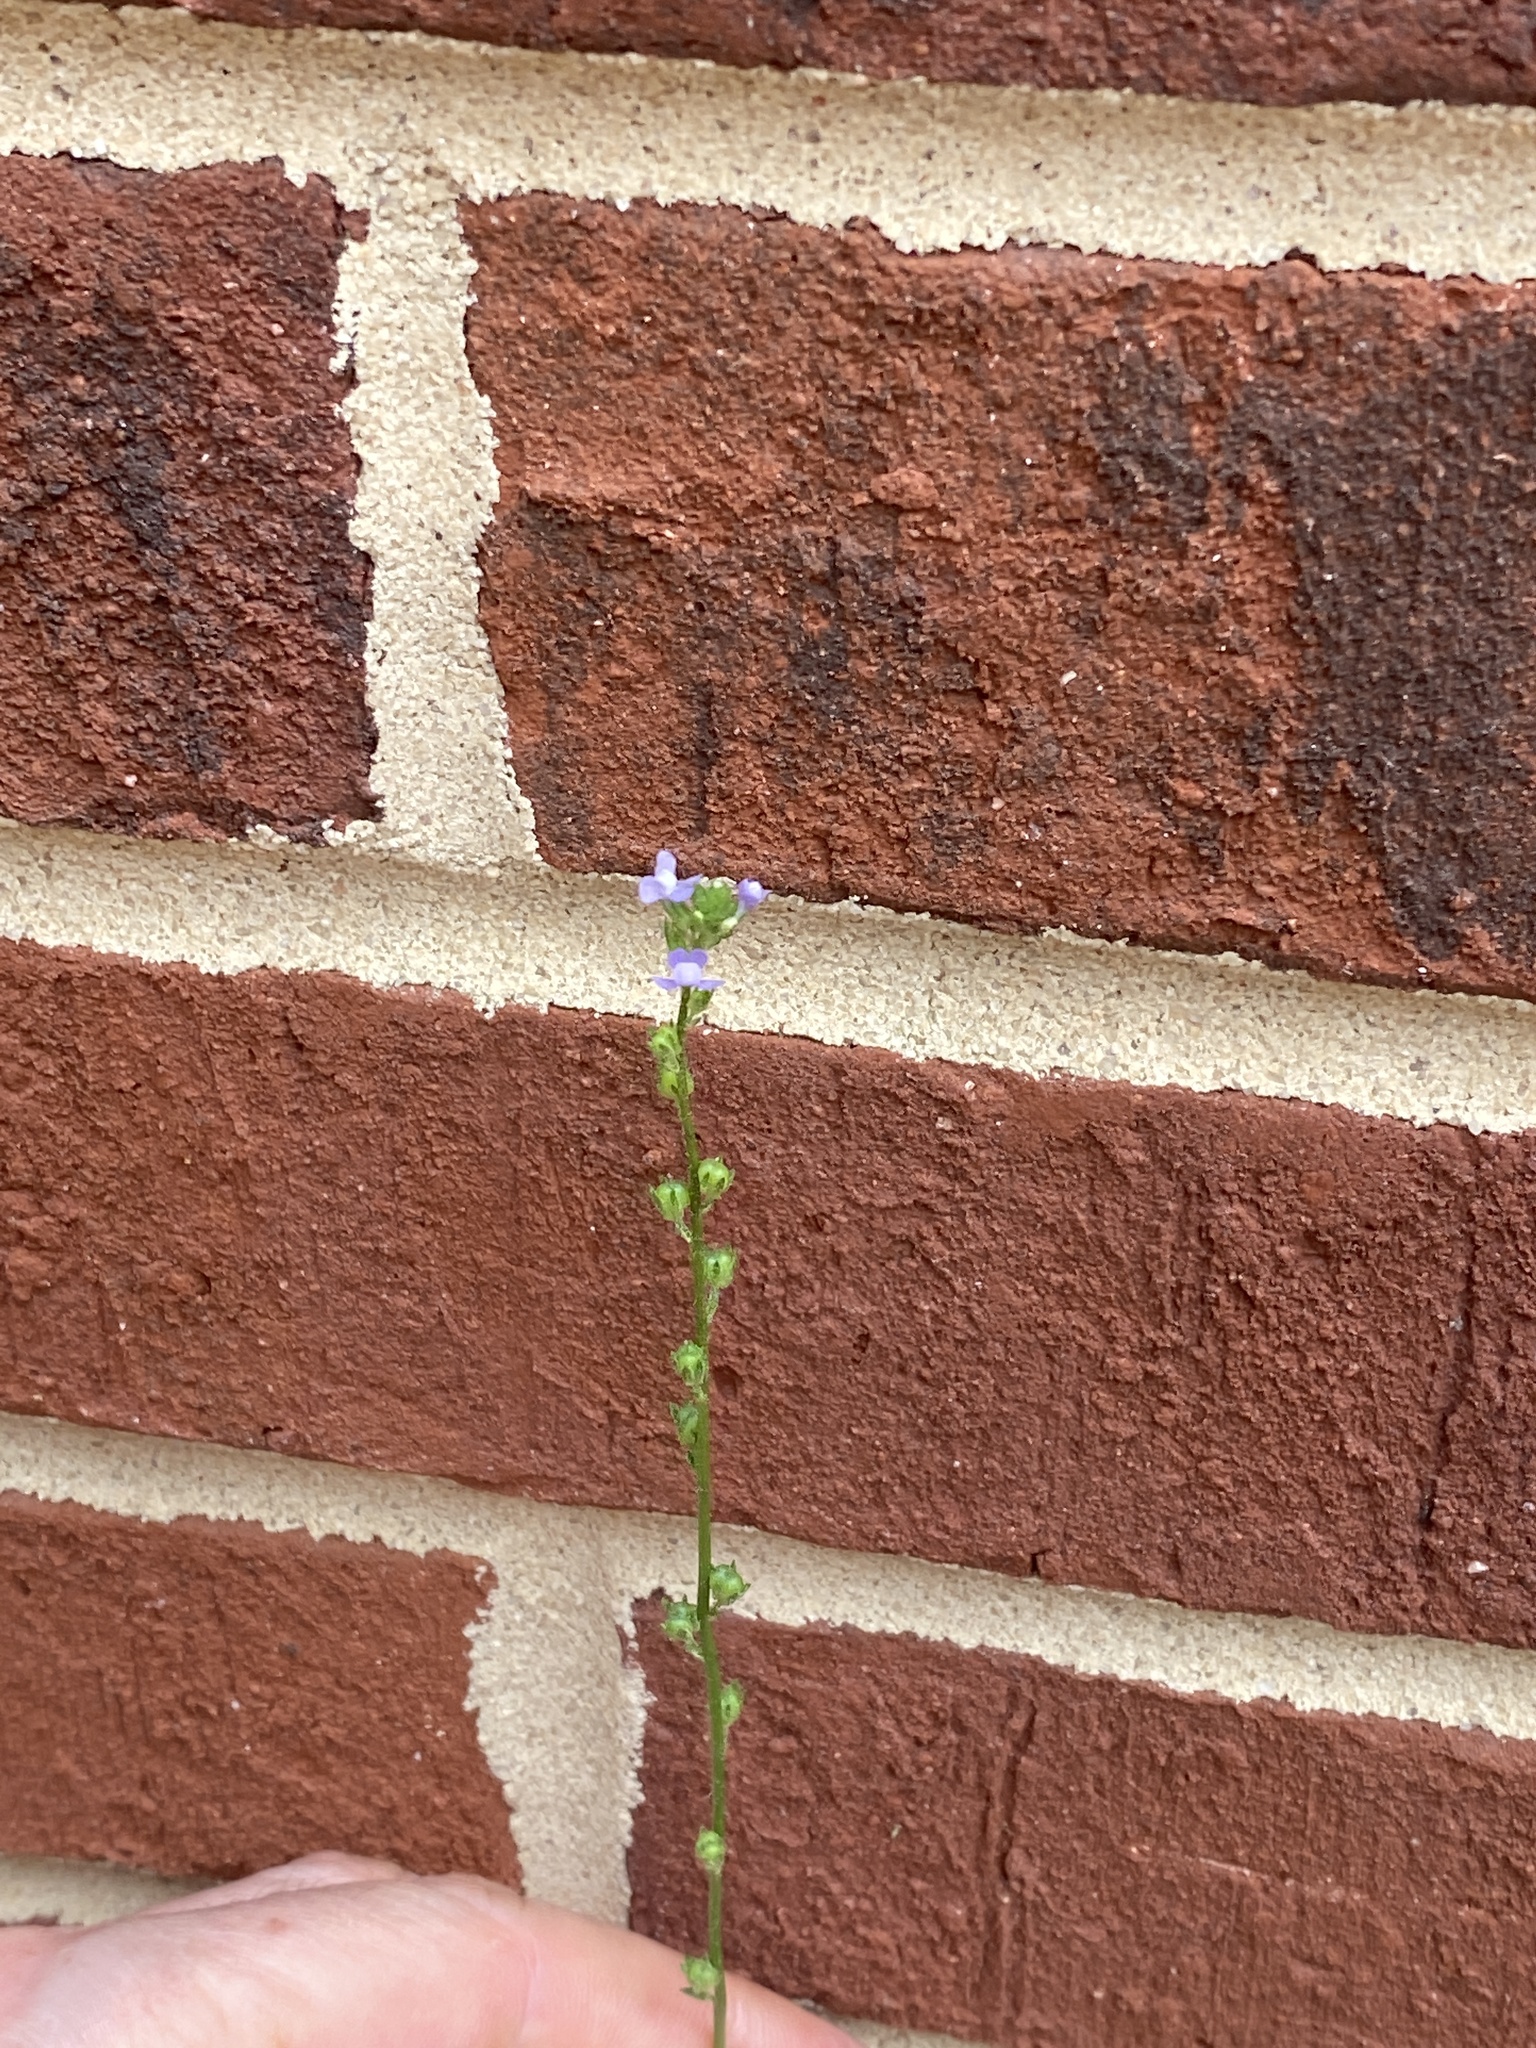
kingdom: Plantae
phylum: Tracheophyta
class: Magnoliopsida
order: Lamiales
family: Plantaginaceae
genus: Nuttallanthus
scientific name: Nuttallanthus canadensis
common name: Blue toadflax
